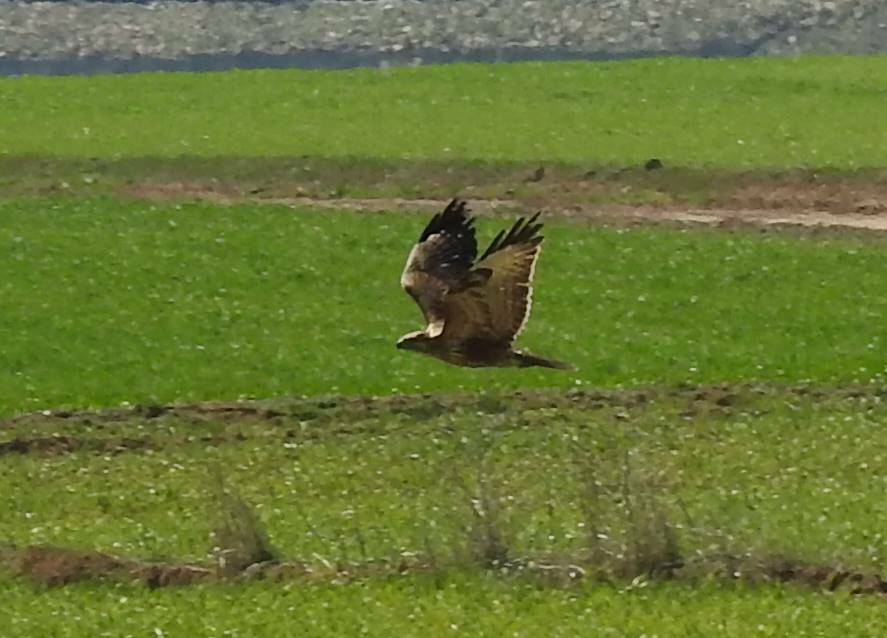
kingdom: Animalia
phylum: Chordata
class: Aves
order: Accipitriformes
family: Accipitridae
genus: Buteo
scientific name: Buteo rufinus
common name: Long-legged buzzard
